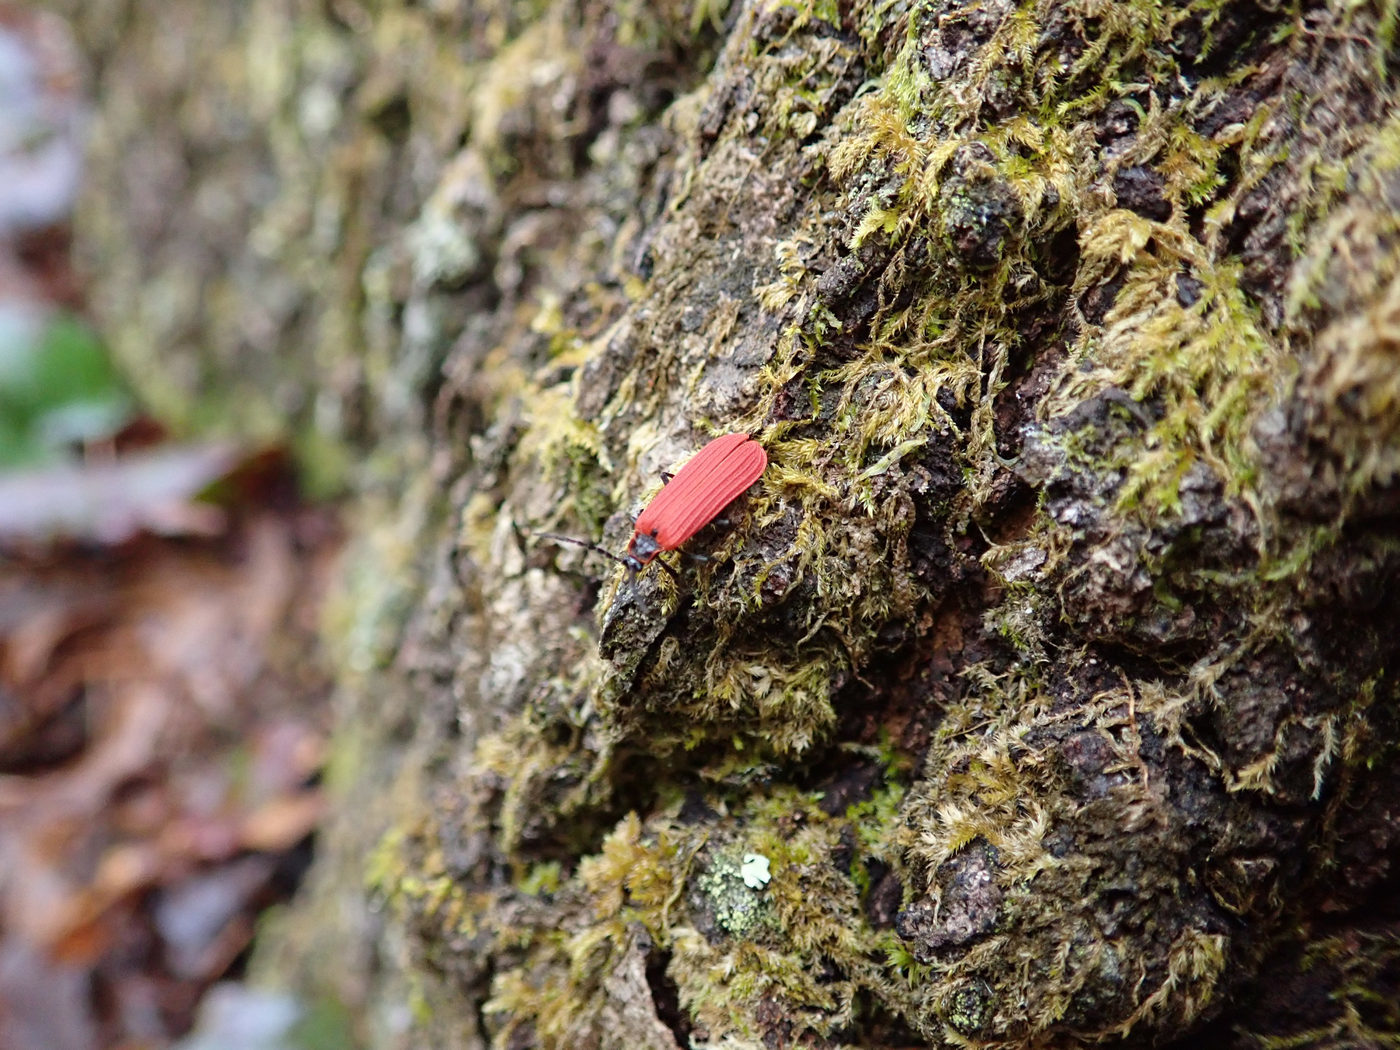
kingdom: Animalia
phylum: Arthropoda
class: Insecta
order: Coleoptera
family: Lycidae
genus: Dictyoptera
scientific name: Dictyoptera aurora
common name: Golden net-winged beetle
